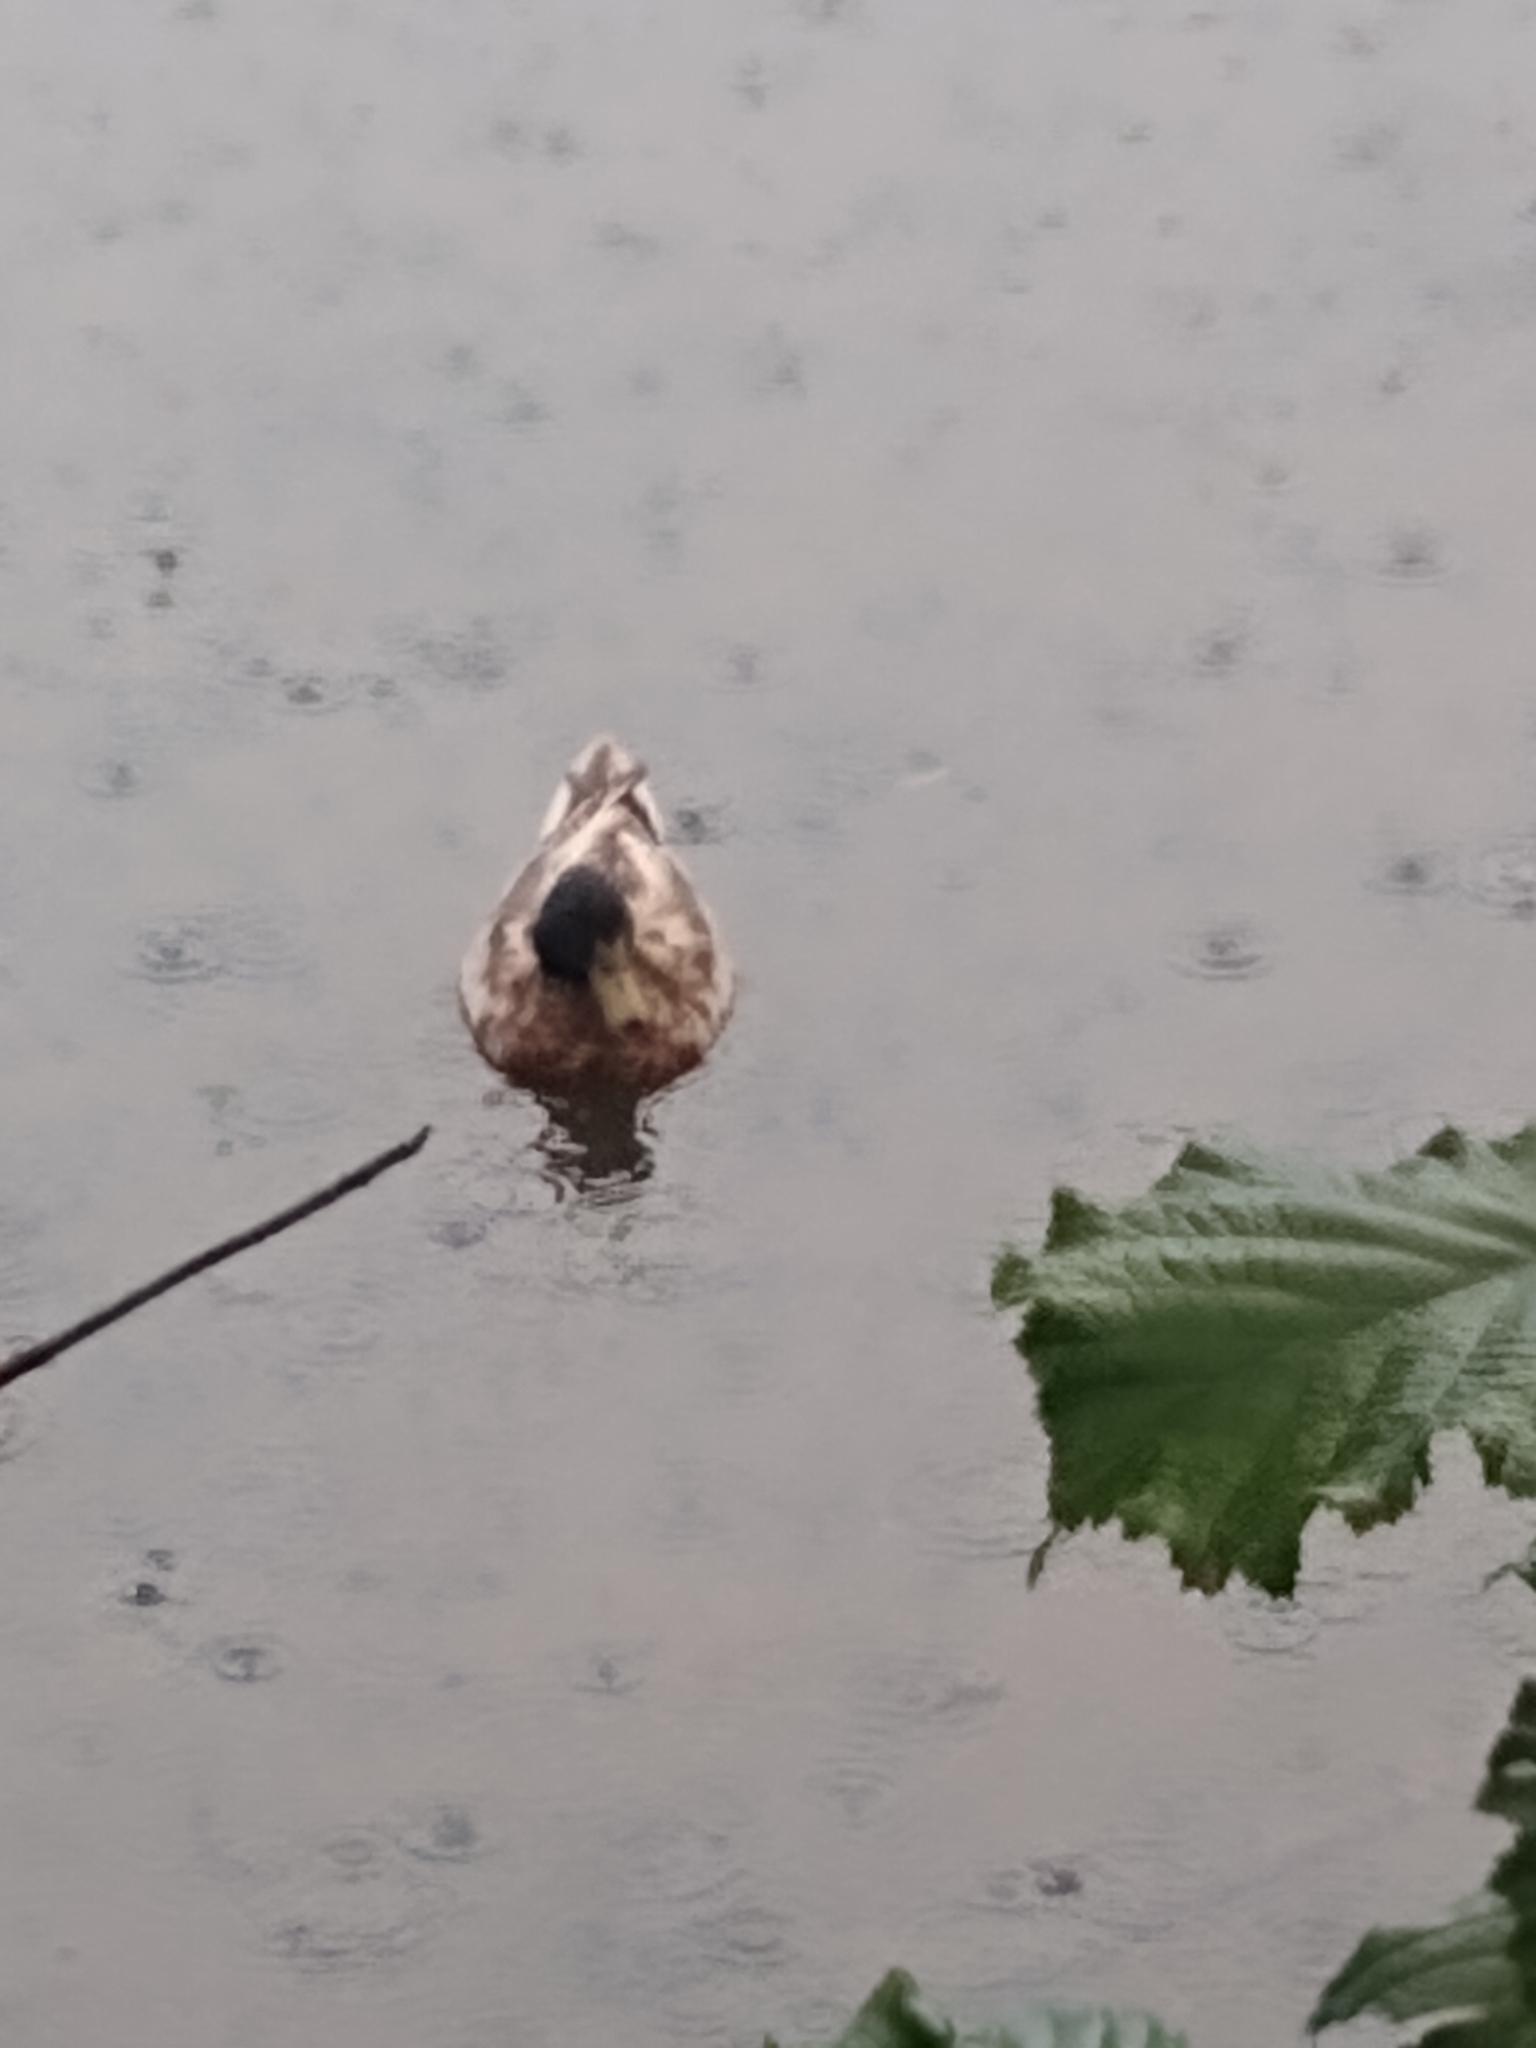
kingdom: Animalia
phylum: Chordata
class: Aves
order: Anseriformes
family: Anatidae
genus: Anas
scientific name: Anas platyrhynchos
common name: Mallard
